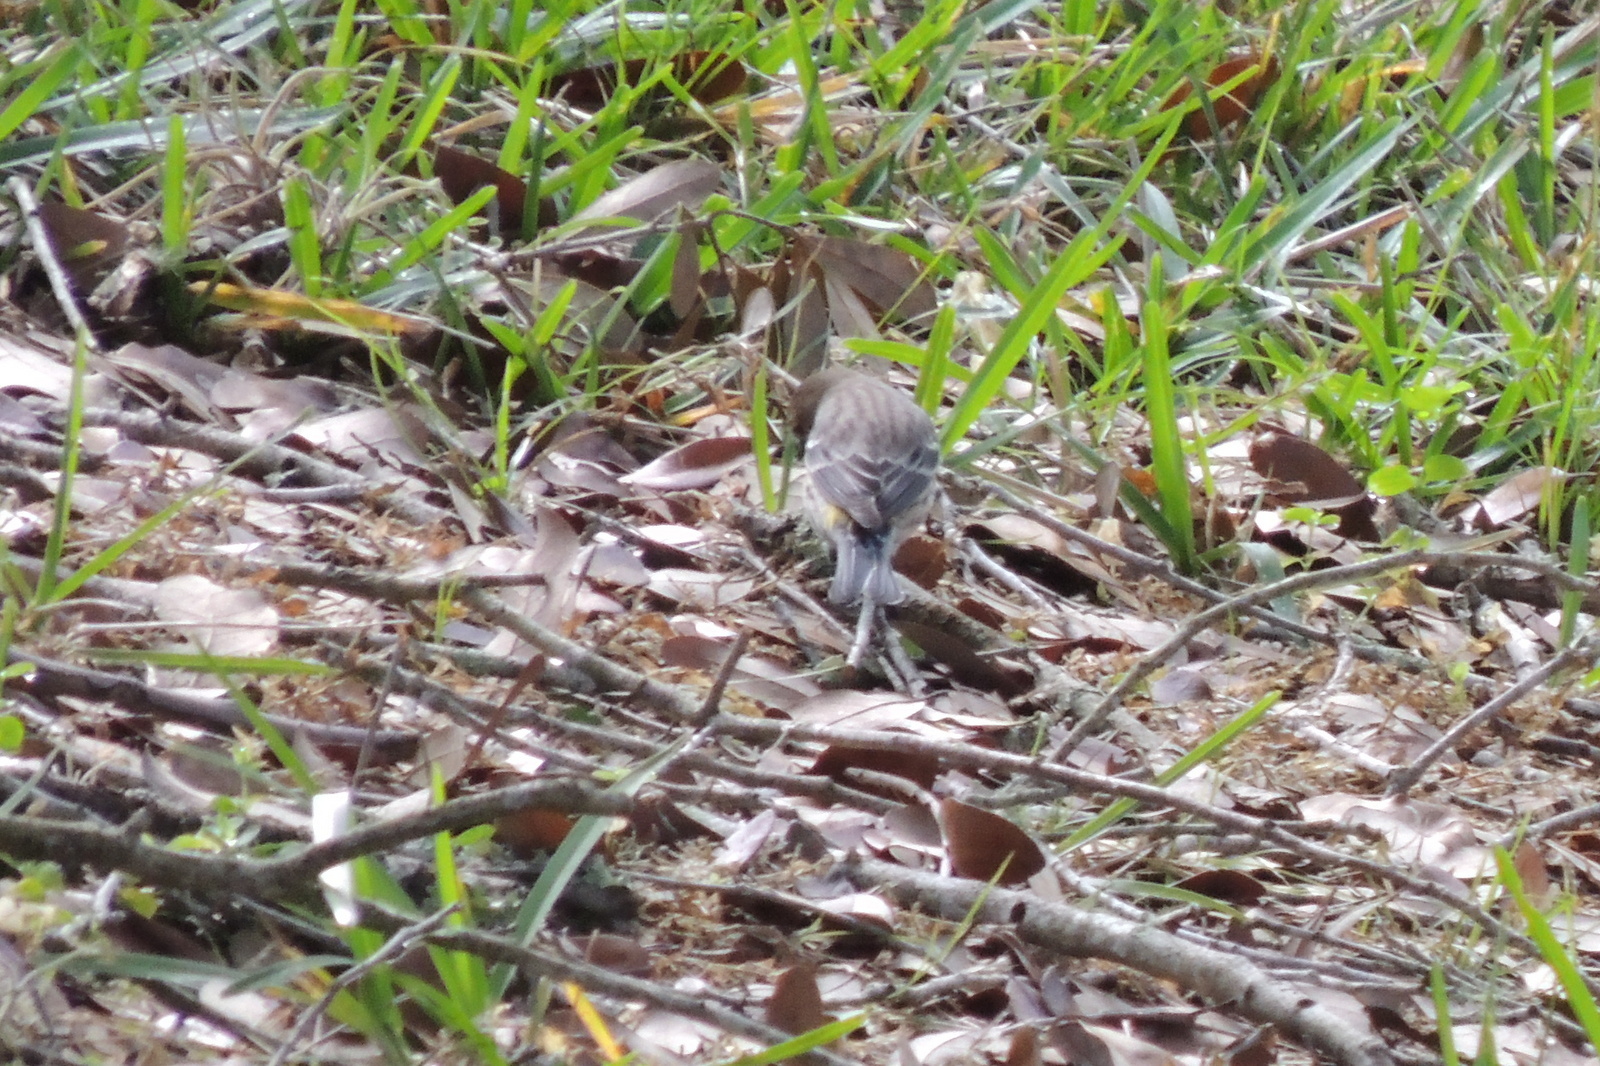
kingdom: Animalia
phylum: Chordata
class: Aves
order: Passeriformes
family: Parulidae
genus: Setophaga
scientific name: Setophaga coronata
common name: Myrtle warbler
